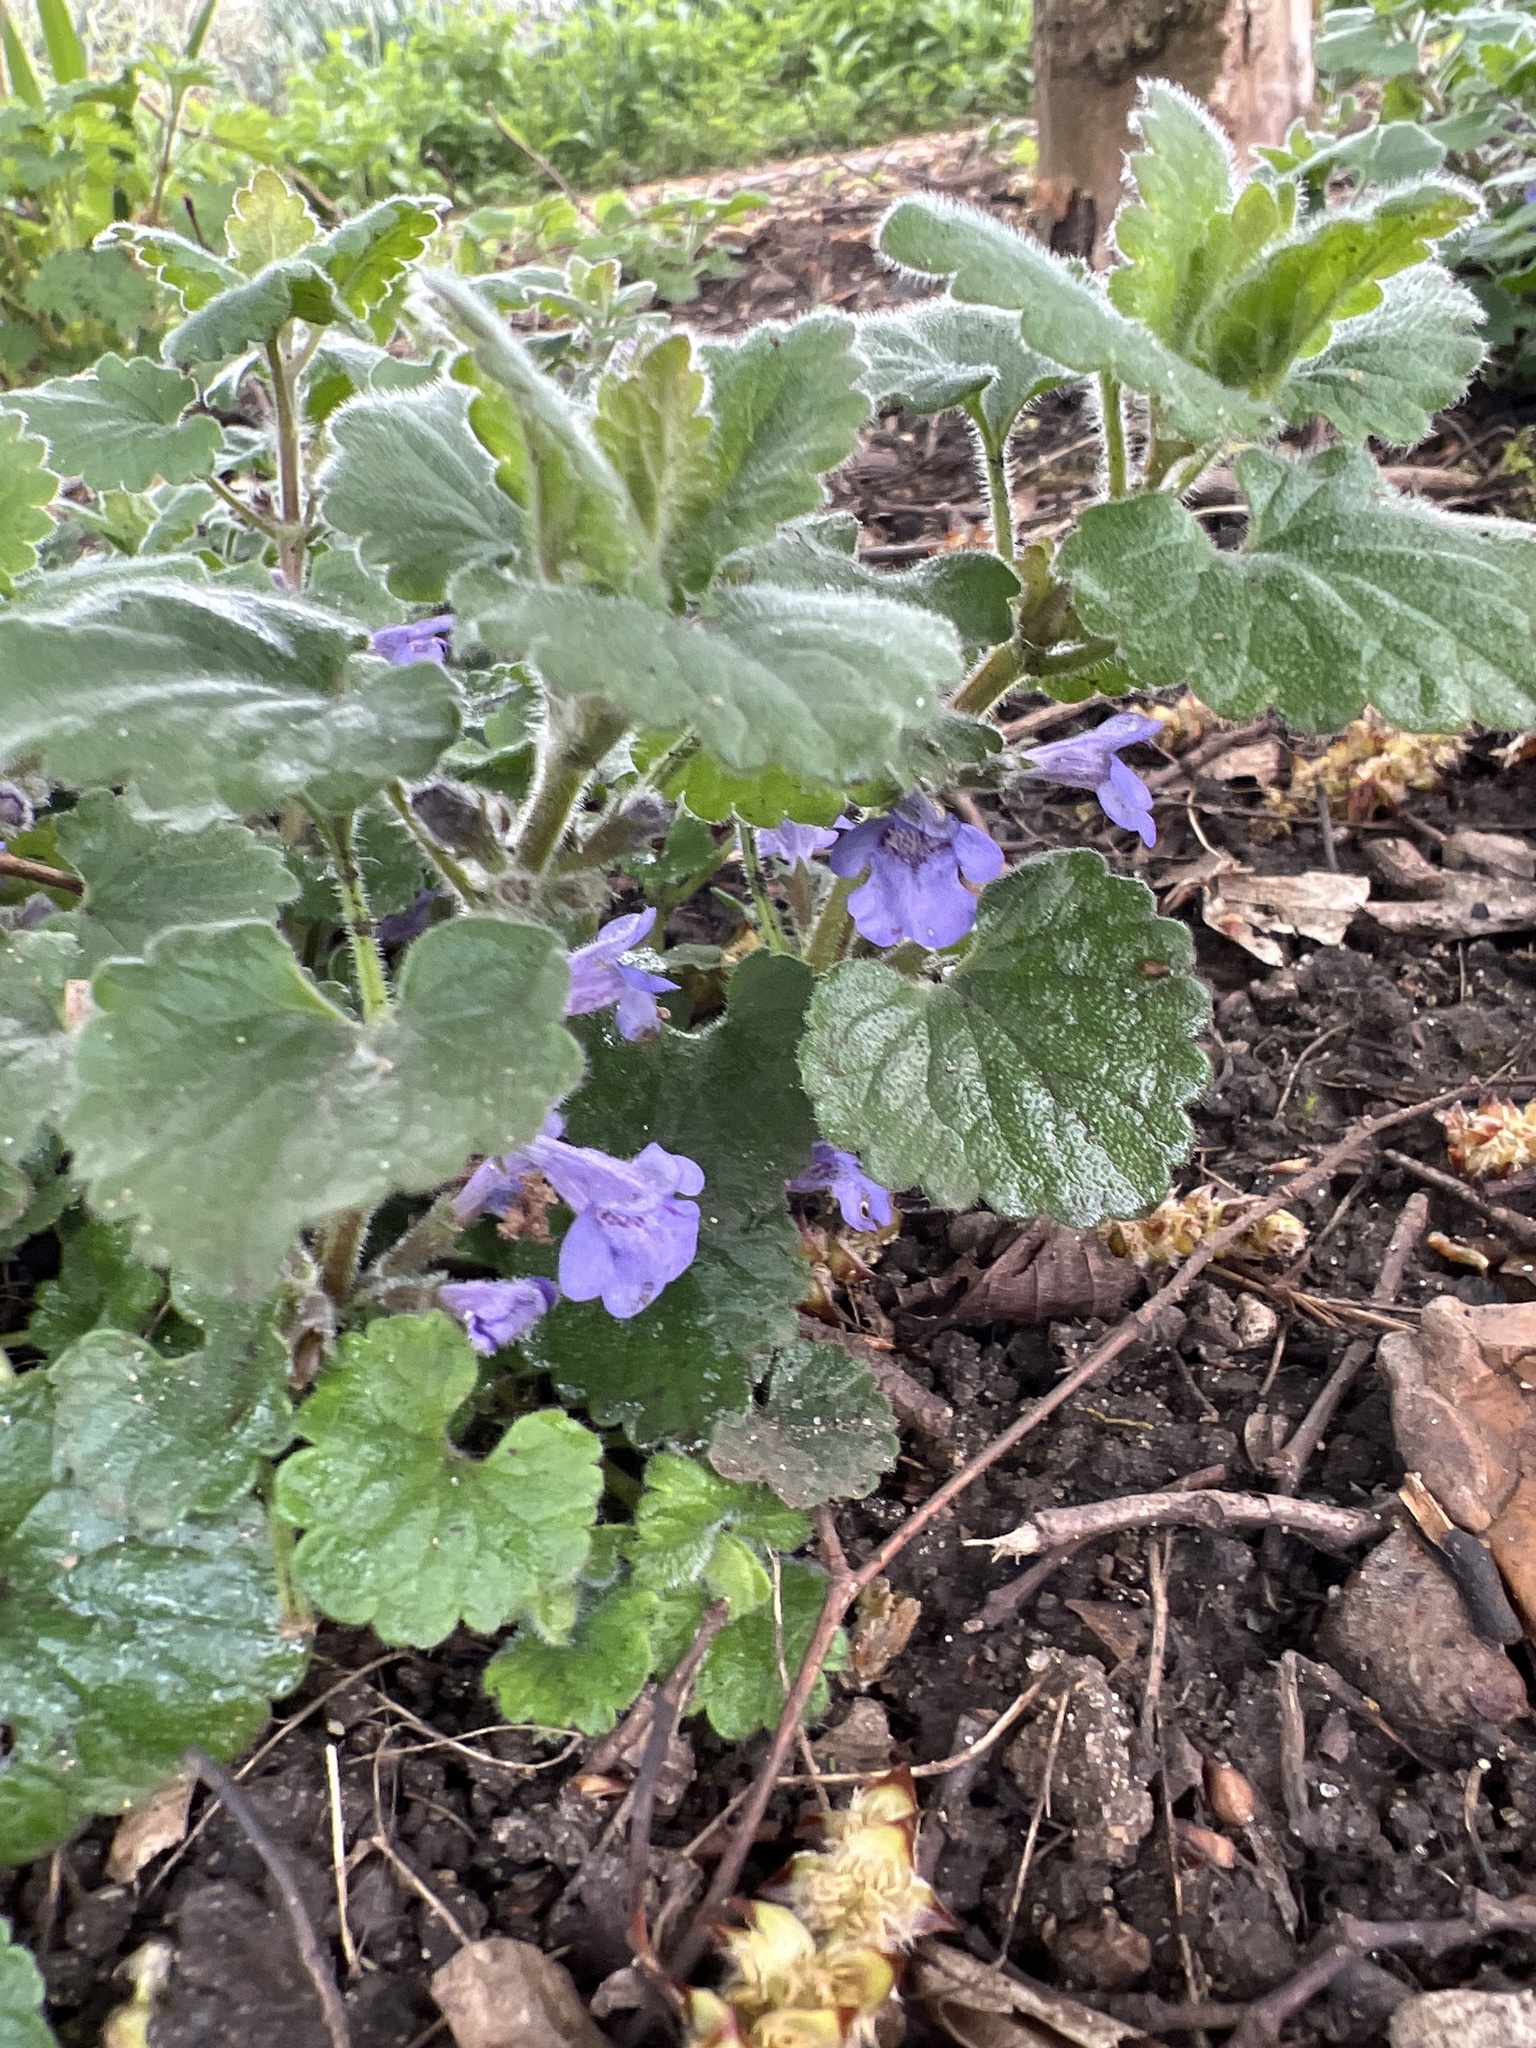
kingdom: Plantae
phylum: Tracheophyta
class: Magnoliopsida
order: Lamiales
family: Lamiaceae
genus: Glechoma
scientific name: Glechoma hederacea
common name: Ground ivy
